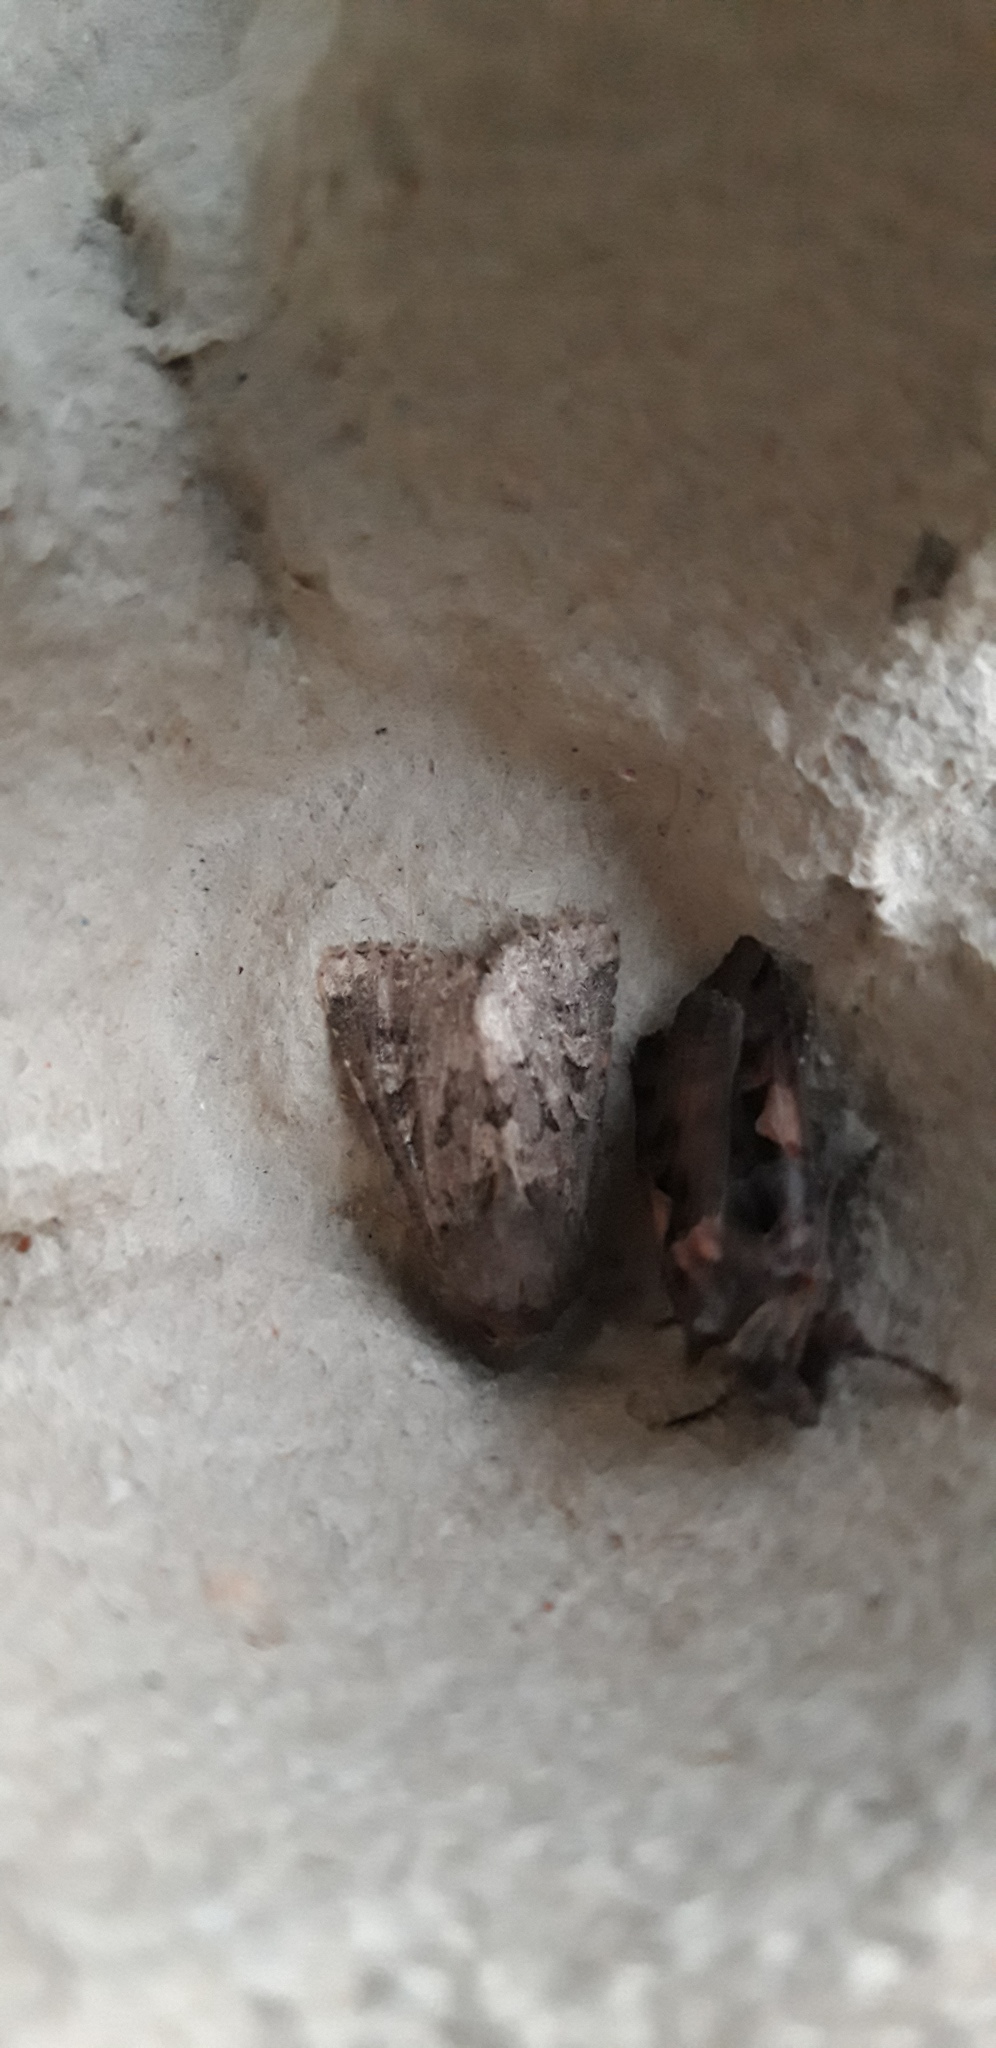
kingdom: Animalia
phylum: Arthropoda
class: Insecta
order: Lepidoptera
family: Noctuidae
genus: Luperina
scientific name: Luperina testacea
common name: Flounced rustic
